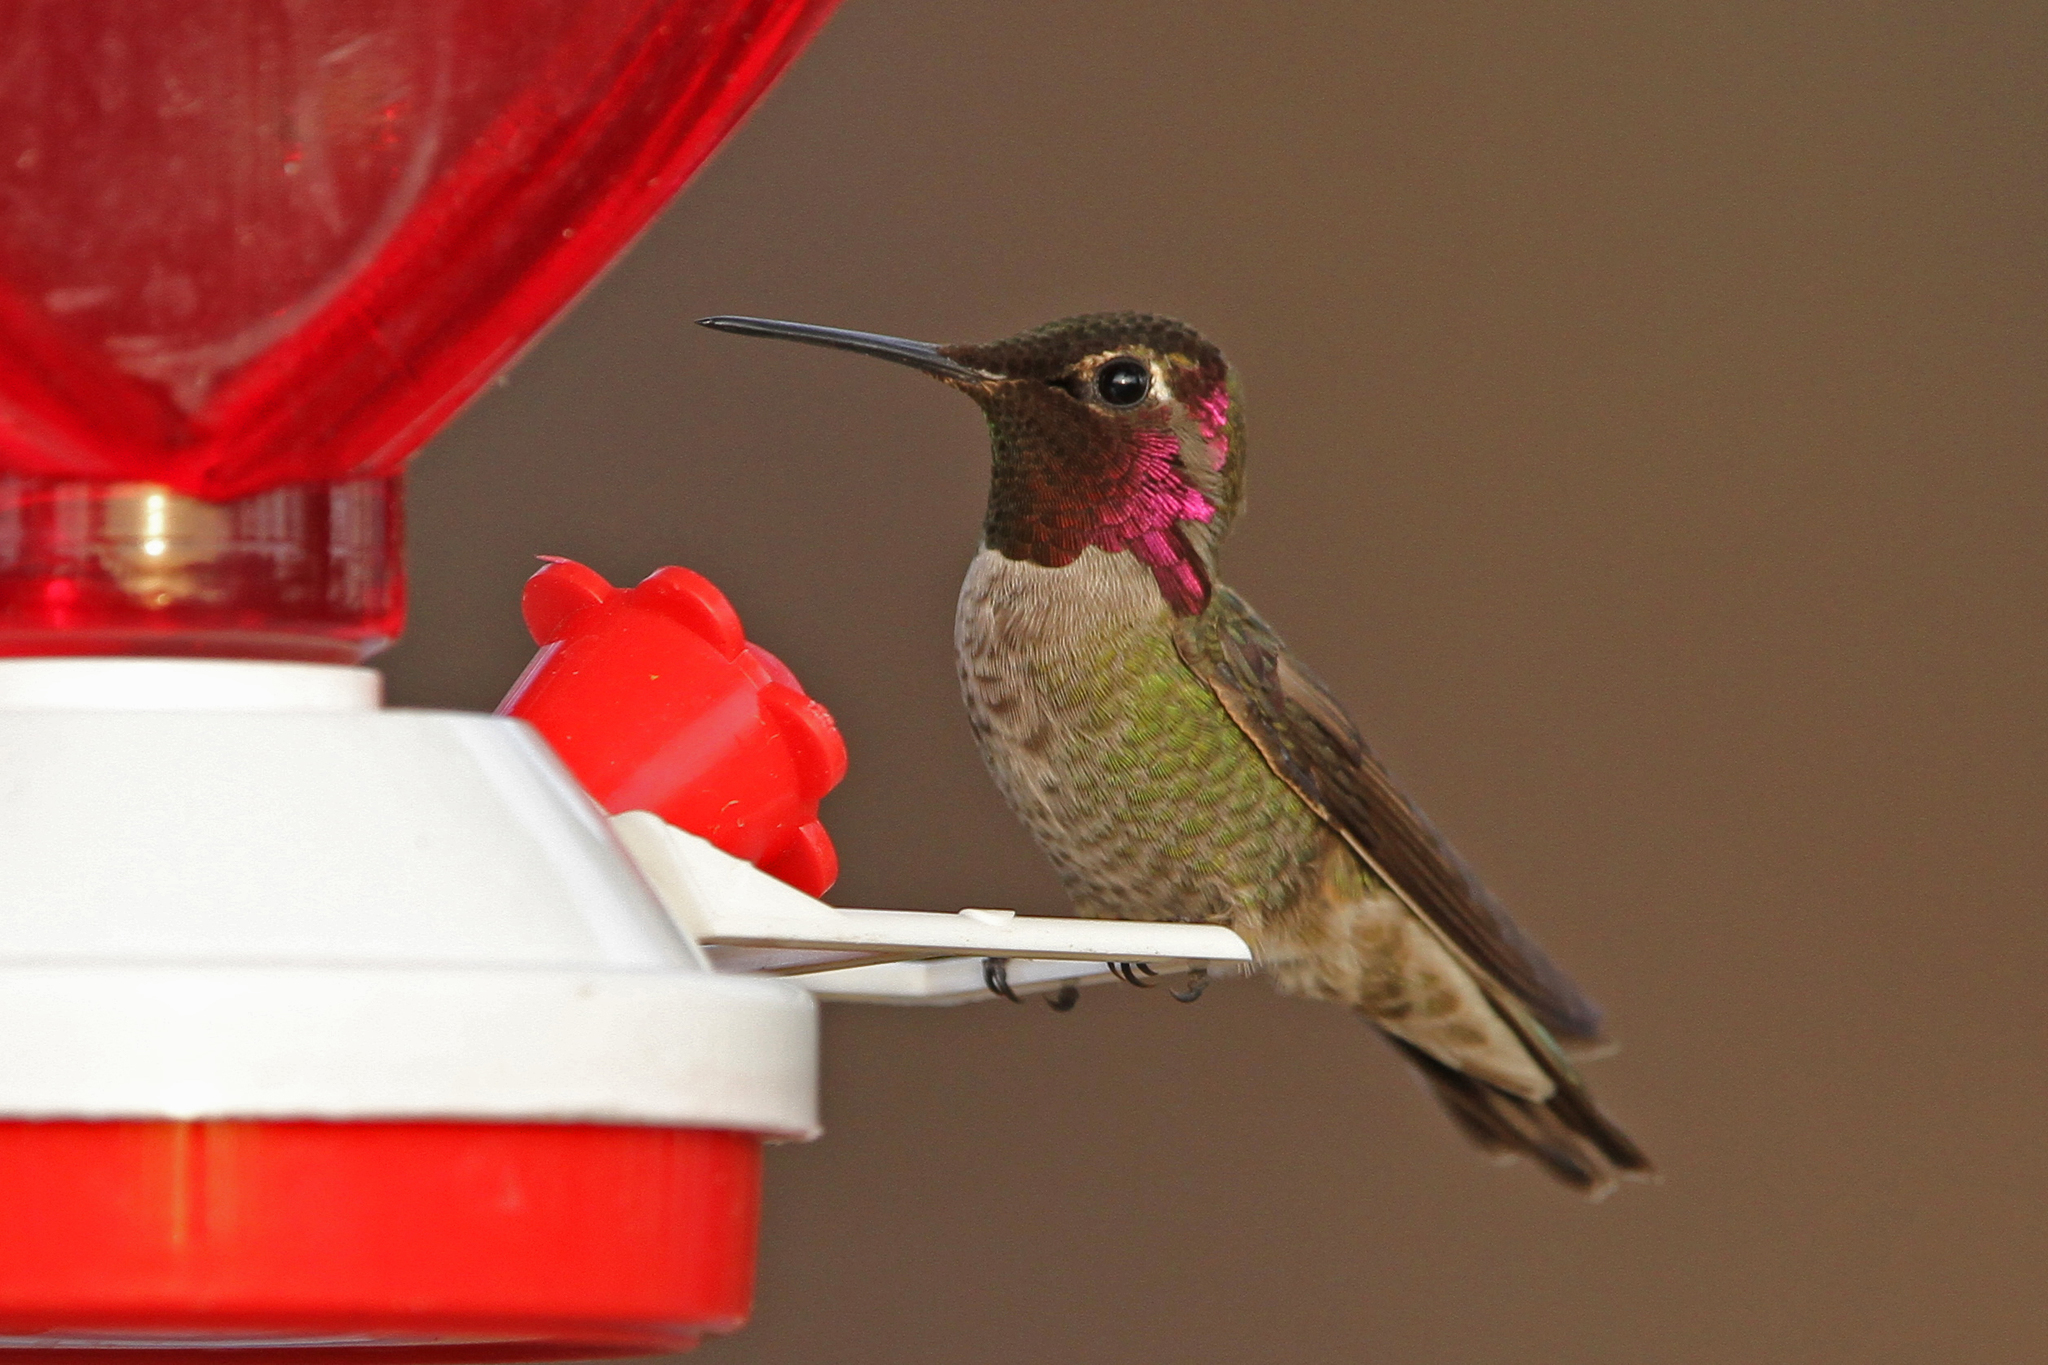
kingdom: Animalia
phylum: Chordata
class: Aves
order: Apodiformes
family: Trochilidae
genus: Calypte
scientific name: Calypte anna
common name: Anna's hummingbird
